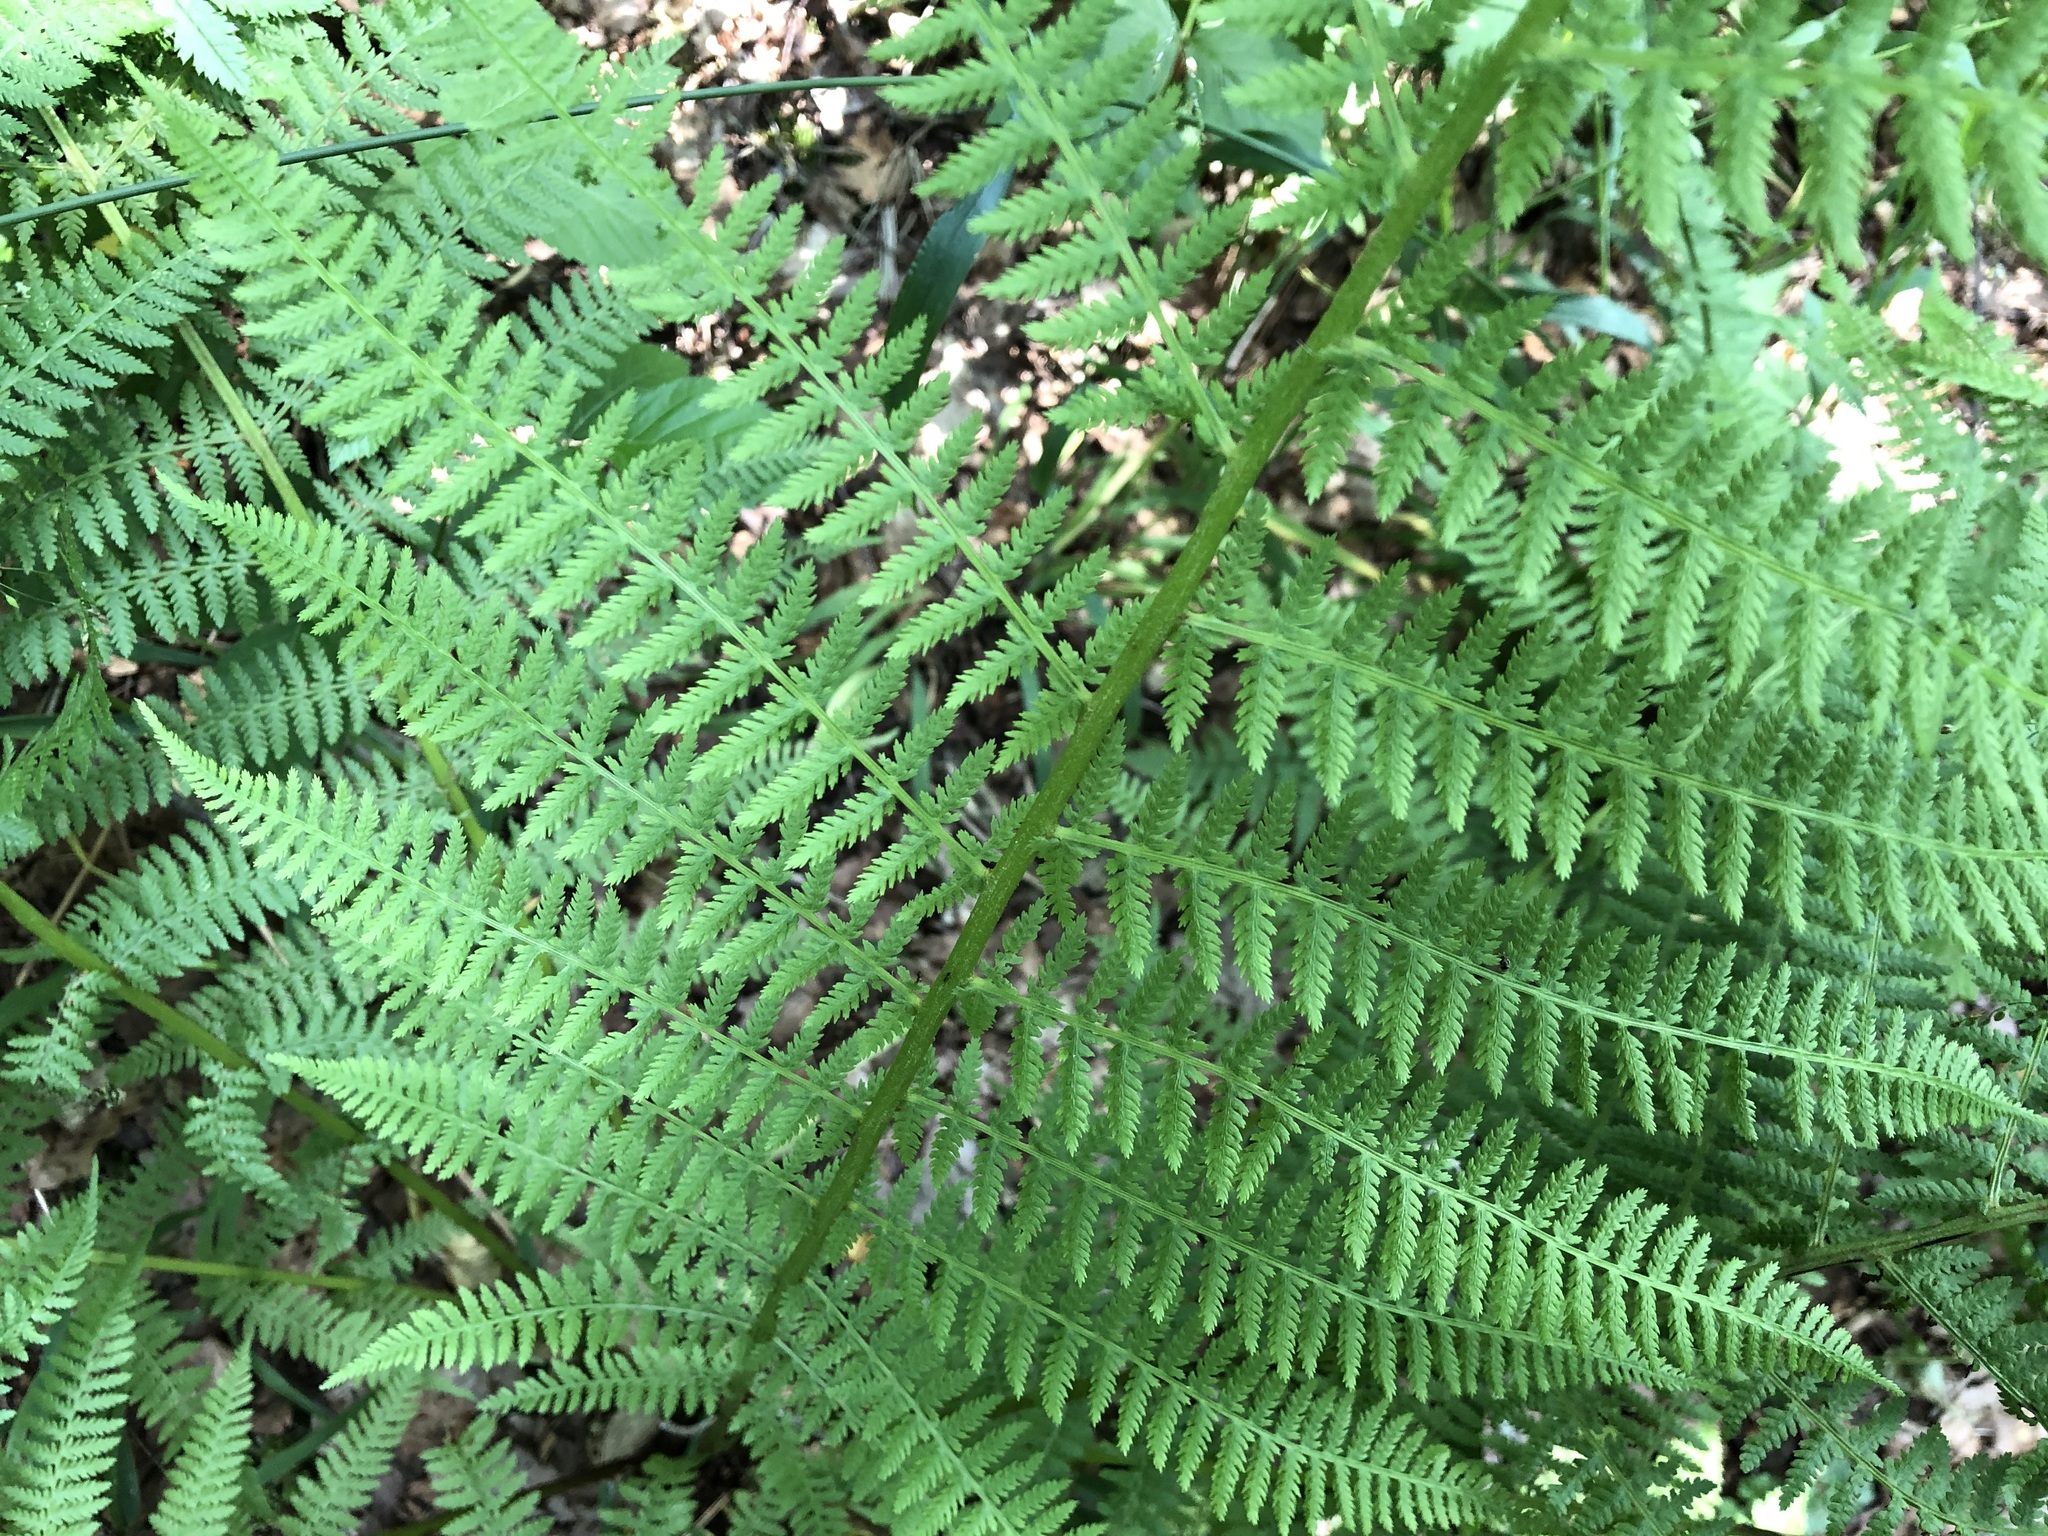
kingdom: Plantae
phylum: Tracheophyta
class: Polypodiopsida
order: Polypodiales
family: Athyriaceae
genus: Athyrium
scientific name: Athyrium filix-femina
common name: Lady fern
